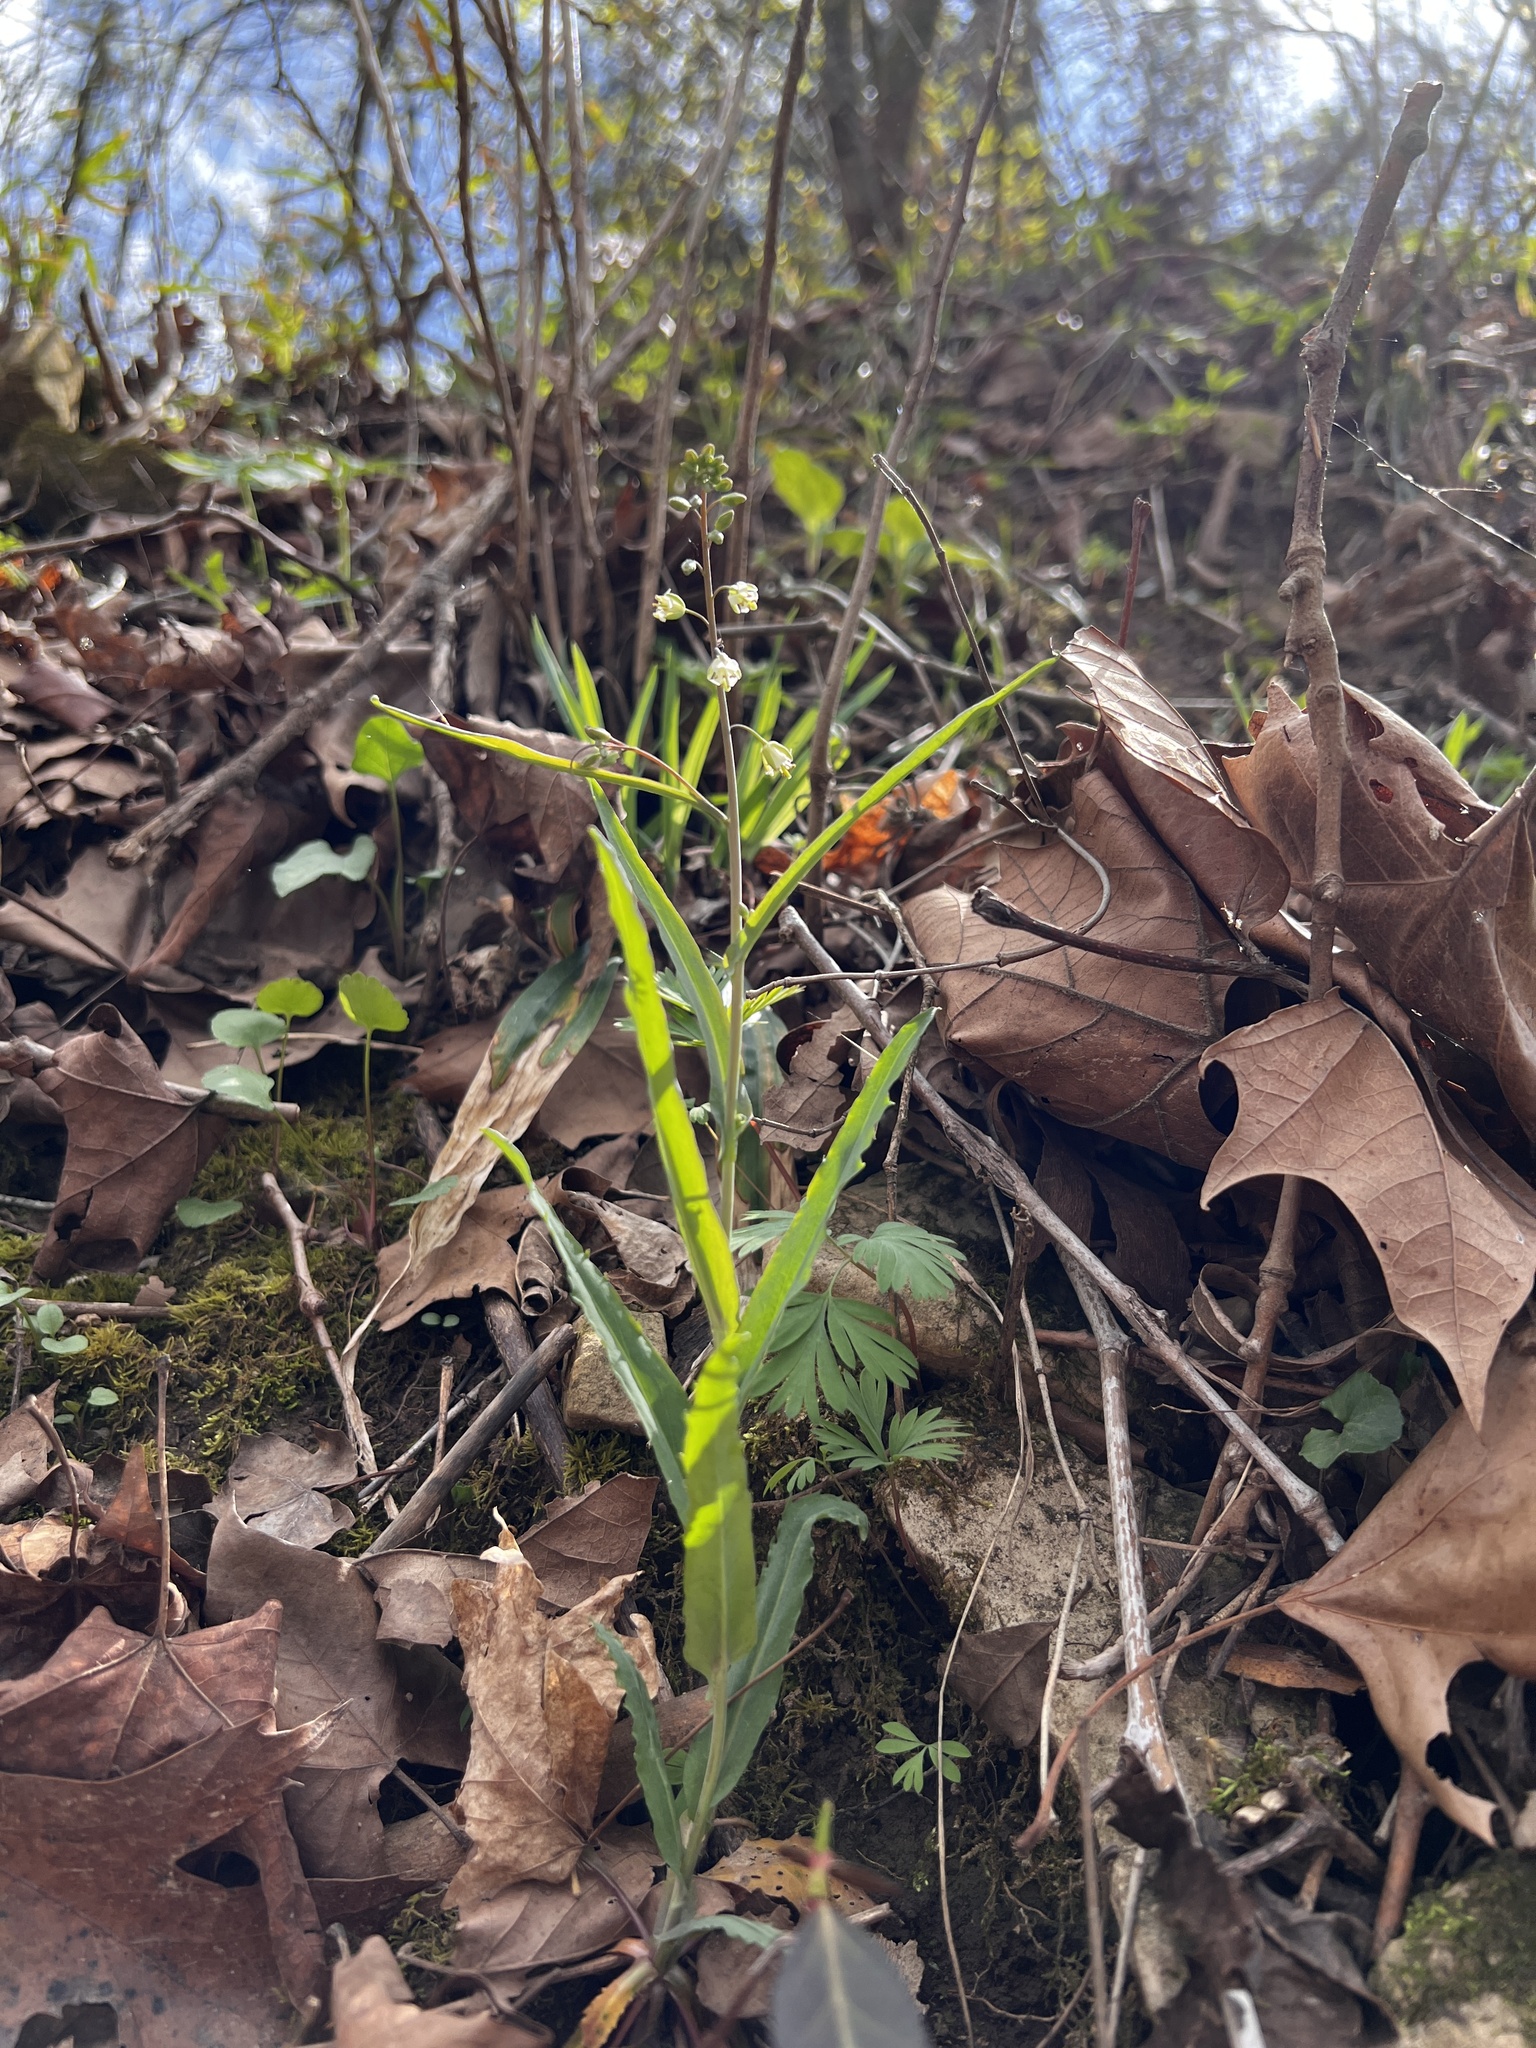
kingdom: Plantae
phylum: Tracheophyta
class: Magnoliopsida
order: Brassicales
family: Brassicaceae
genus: Borodinia
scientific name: Borodinia laevigata
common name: Smooth rockcress
